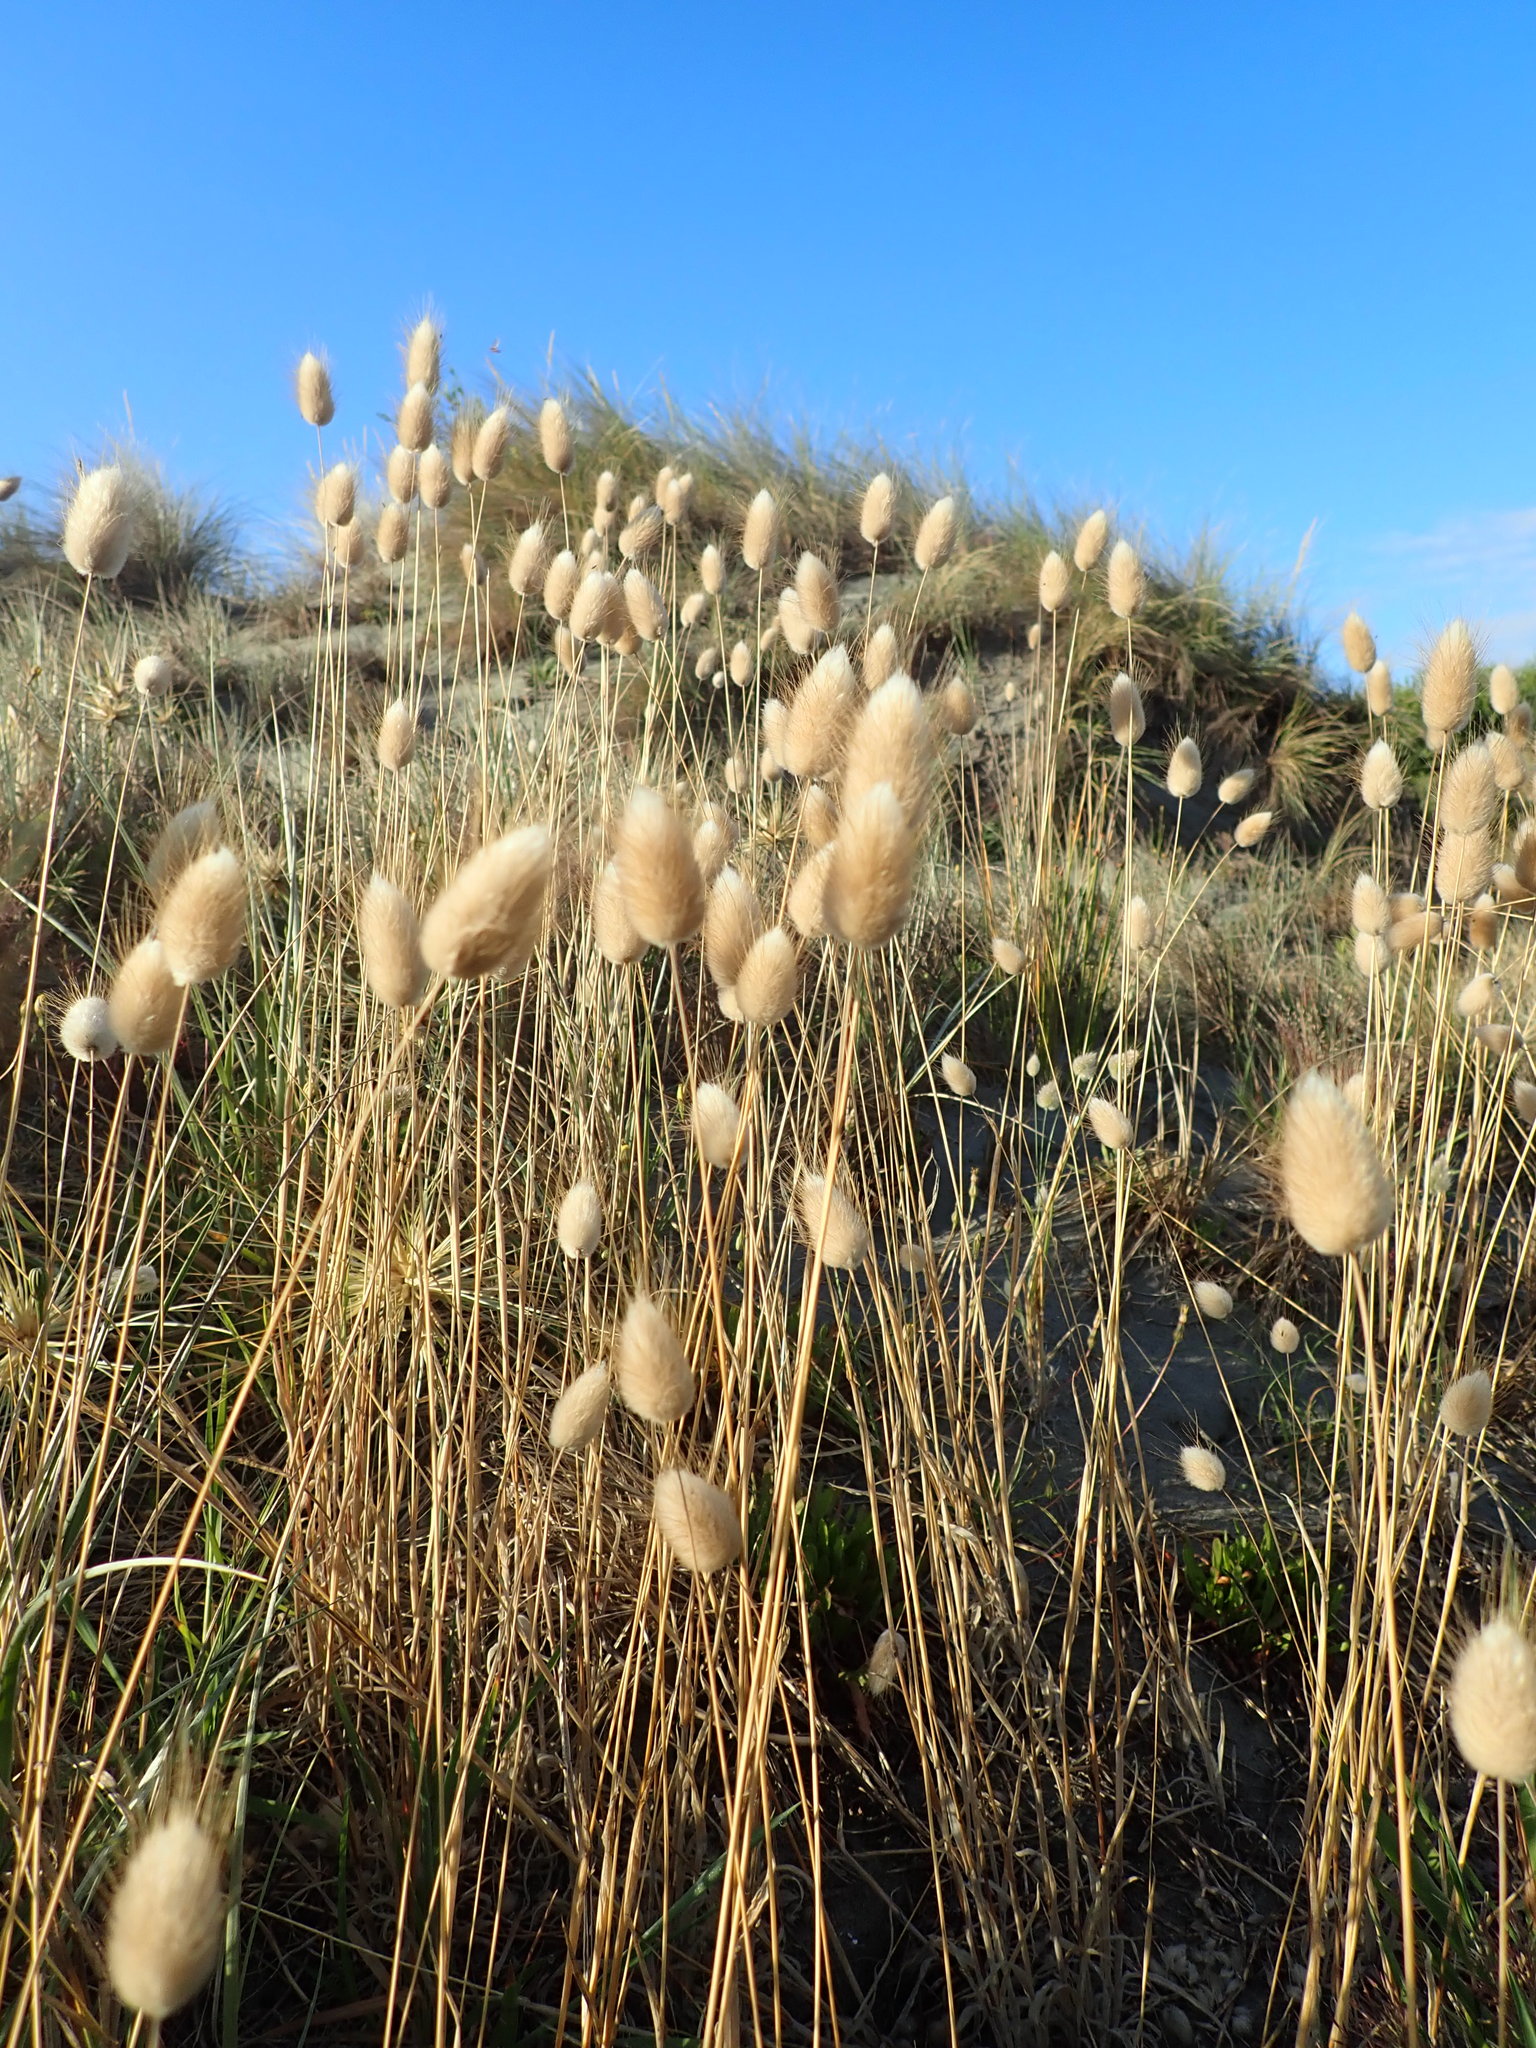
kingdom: Plantae
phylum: Tracheophyta
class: Liliopsida
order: Poales
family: Poaceae
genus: Lagurus
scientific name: Lagurus ovatus
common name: Hare's-tail
